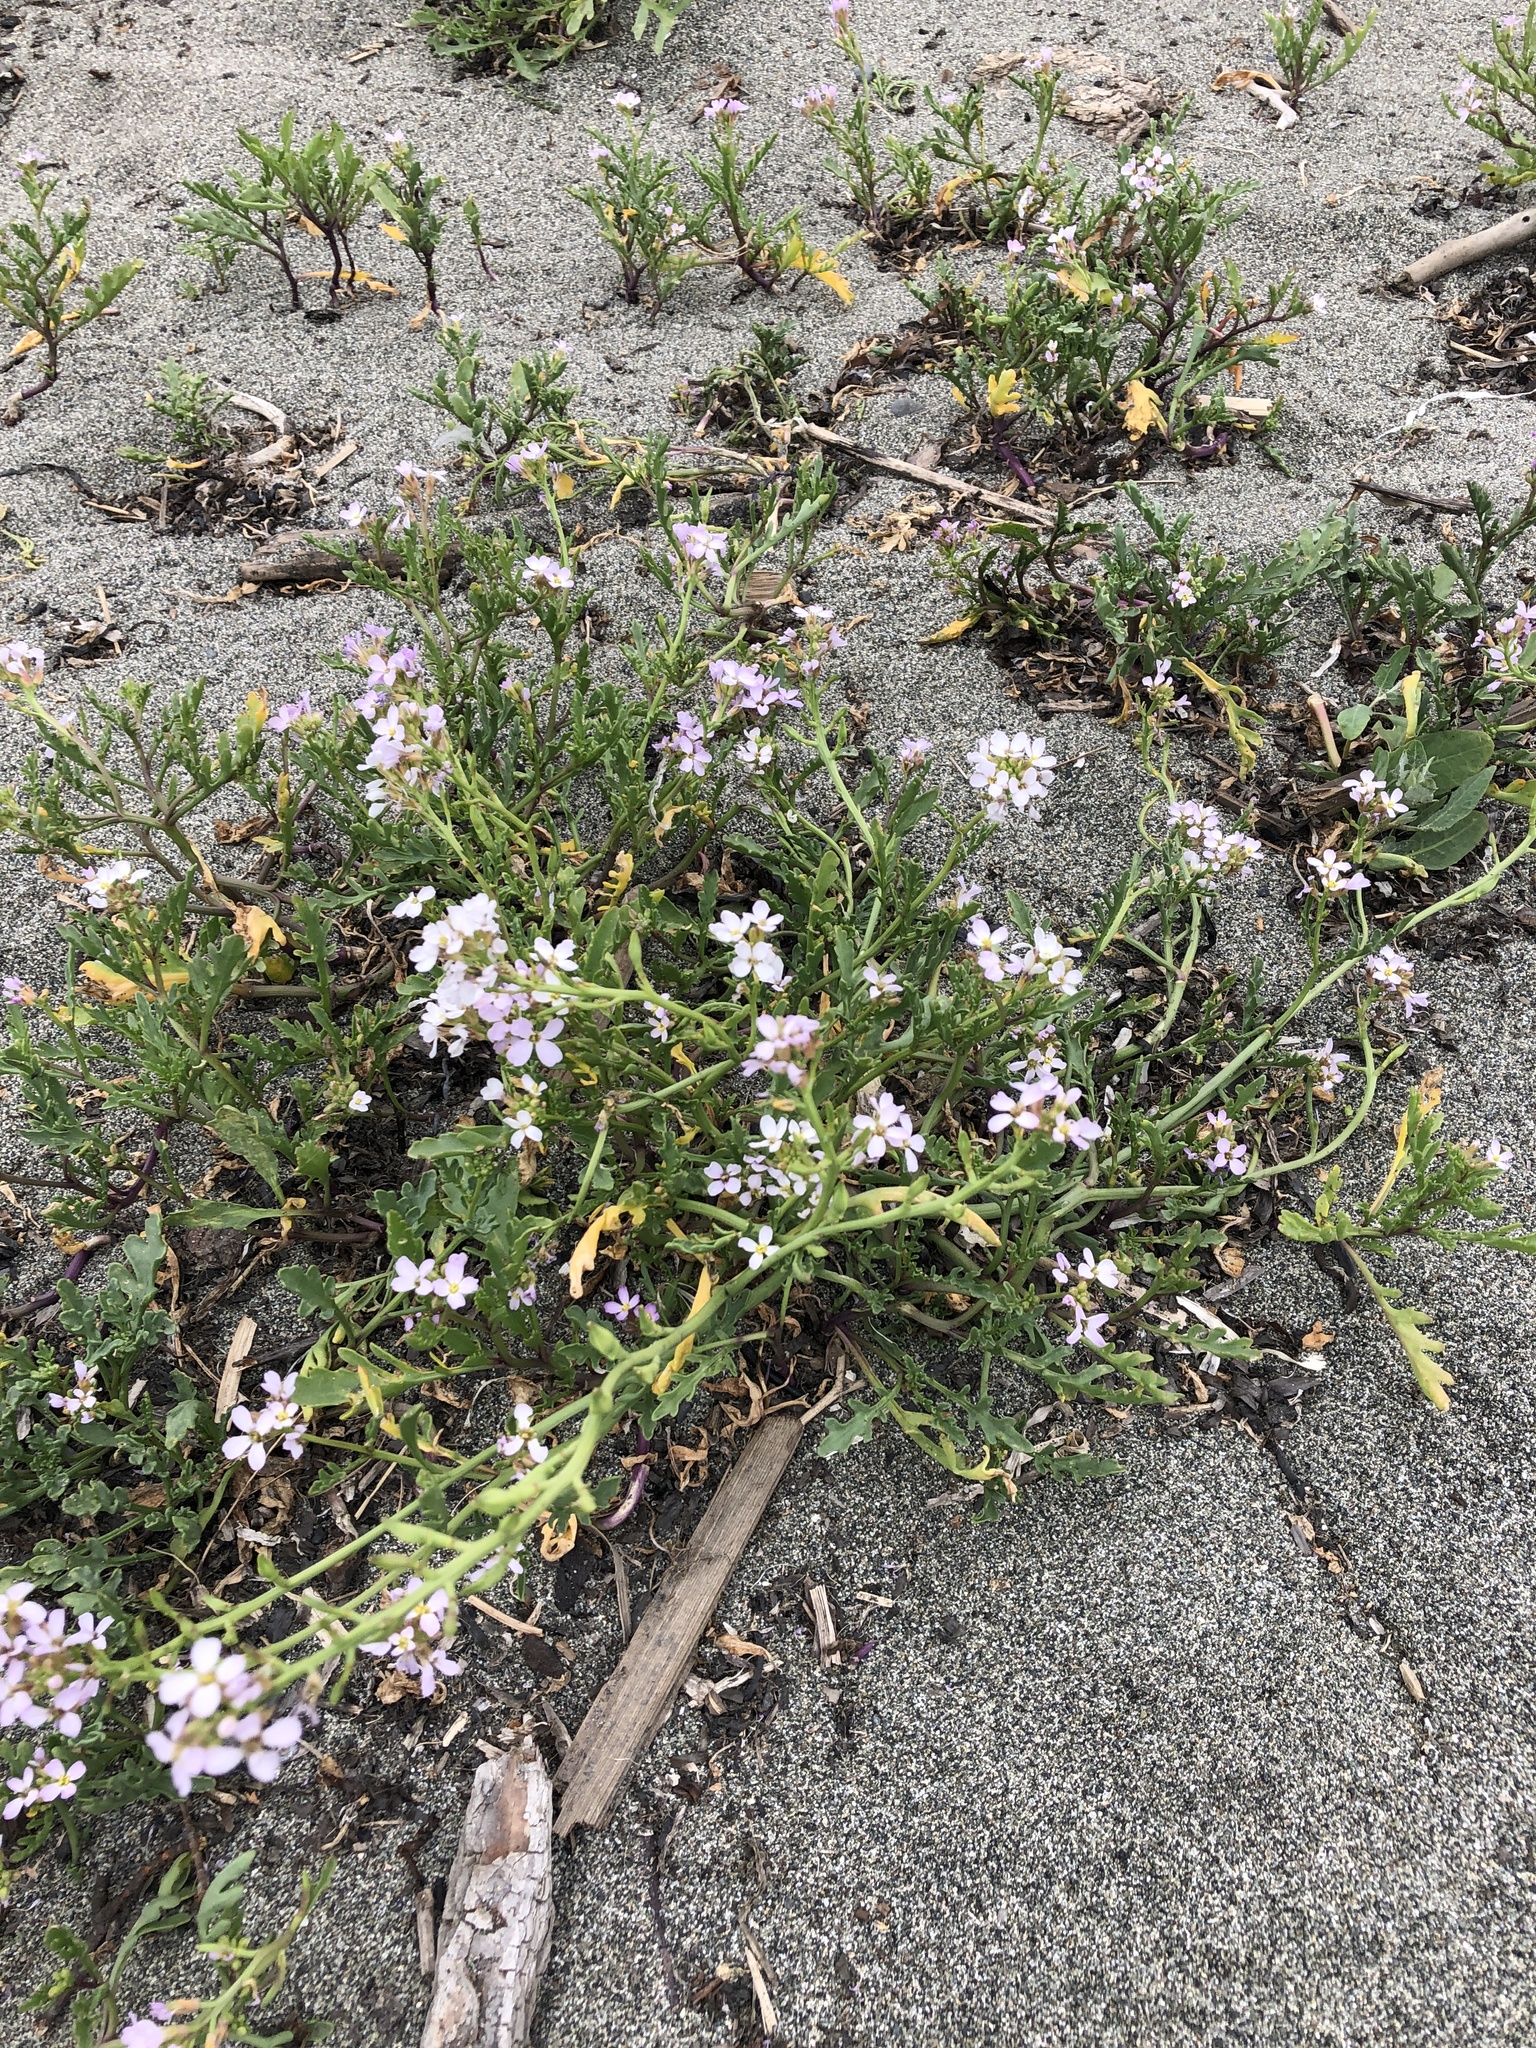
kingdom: Plantae
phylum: Tracheophyta
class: Magnoliopsida
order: Brassicales
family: Brassicaceae
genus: Cakile
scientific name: Cakile maritima
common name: Sea rocket
